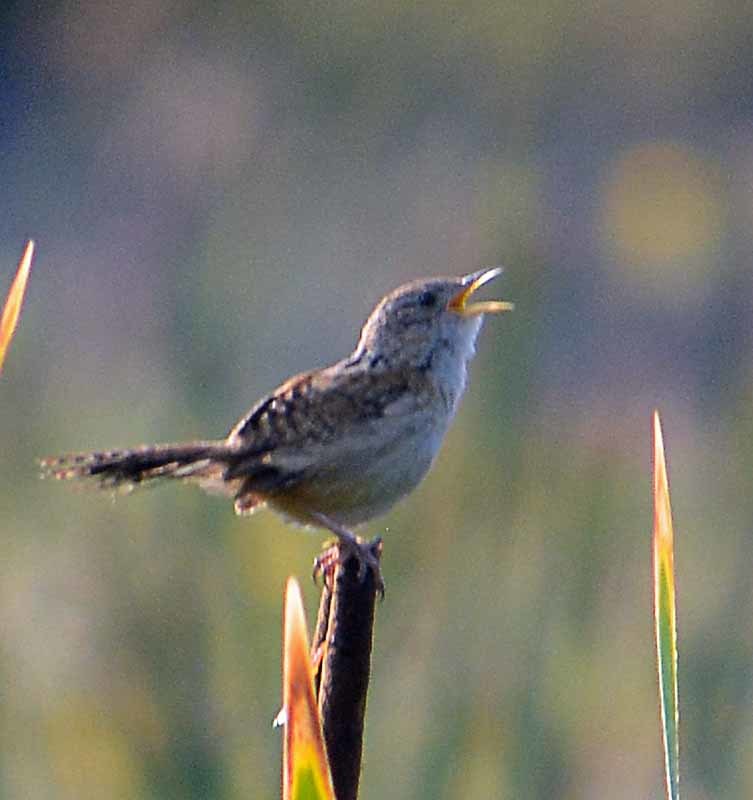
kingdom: Animalia
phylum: Chordata
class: Aves
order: Passeriformes
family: Troglodytidae
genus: Cistothorus
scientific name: Cistothorus platensis
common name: Sedge wren
